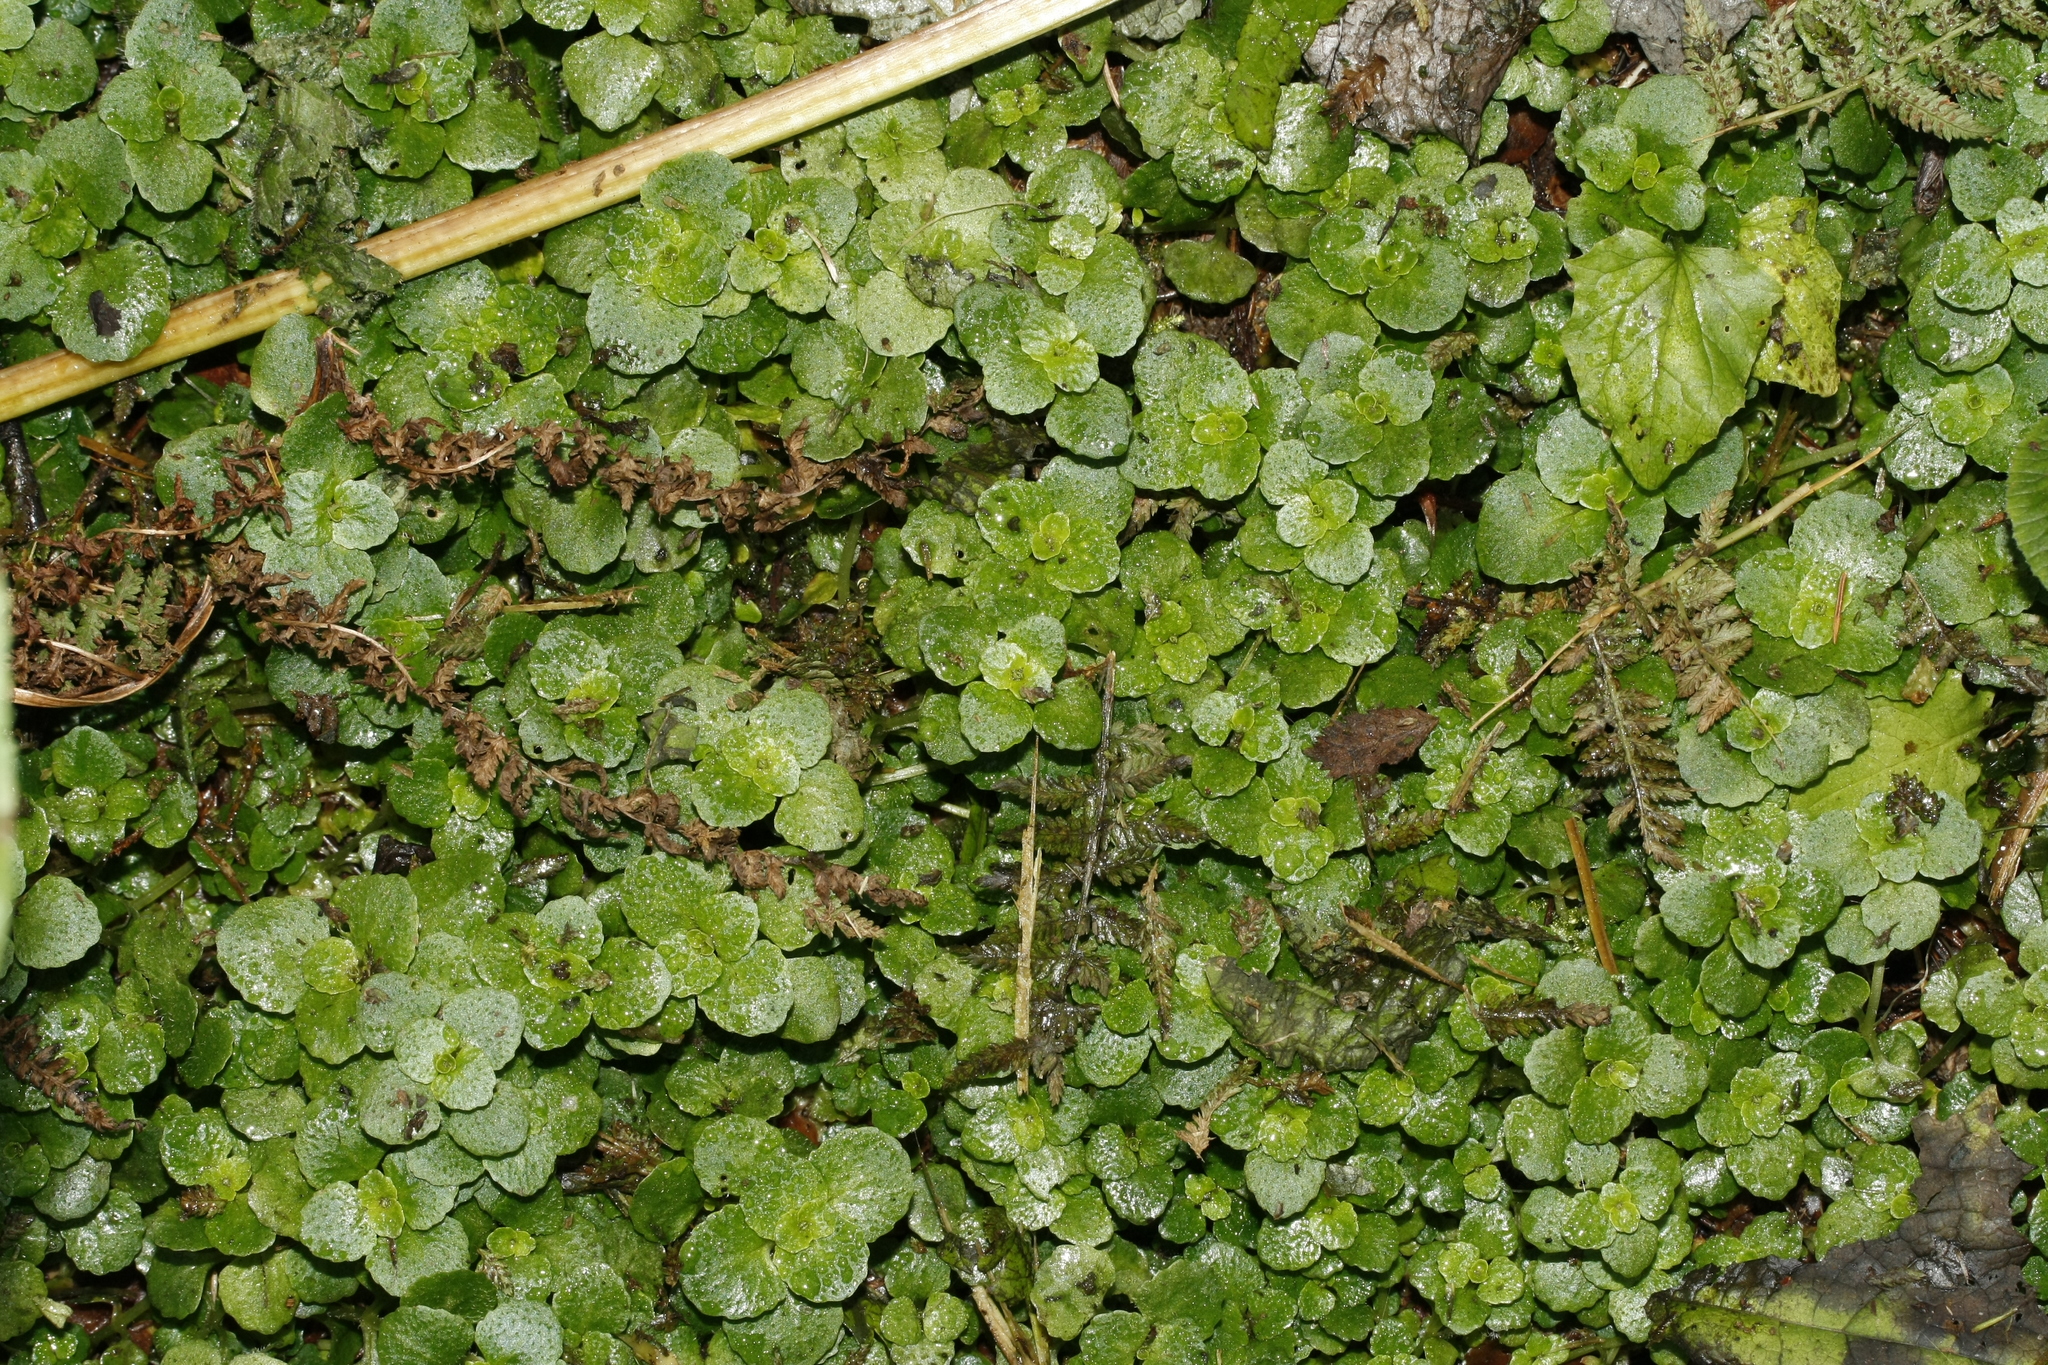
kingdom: Plantae
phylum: Tracheophyta
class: Magnoliopsida
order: Saxifragales
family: Saxifragaceae
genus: Chrysosplenium
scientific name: Chrysosplenium oppositifolium
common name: Opposite-leaved golden-saxifrage
